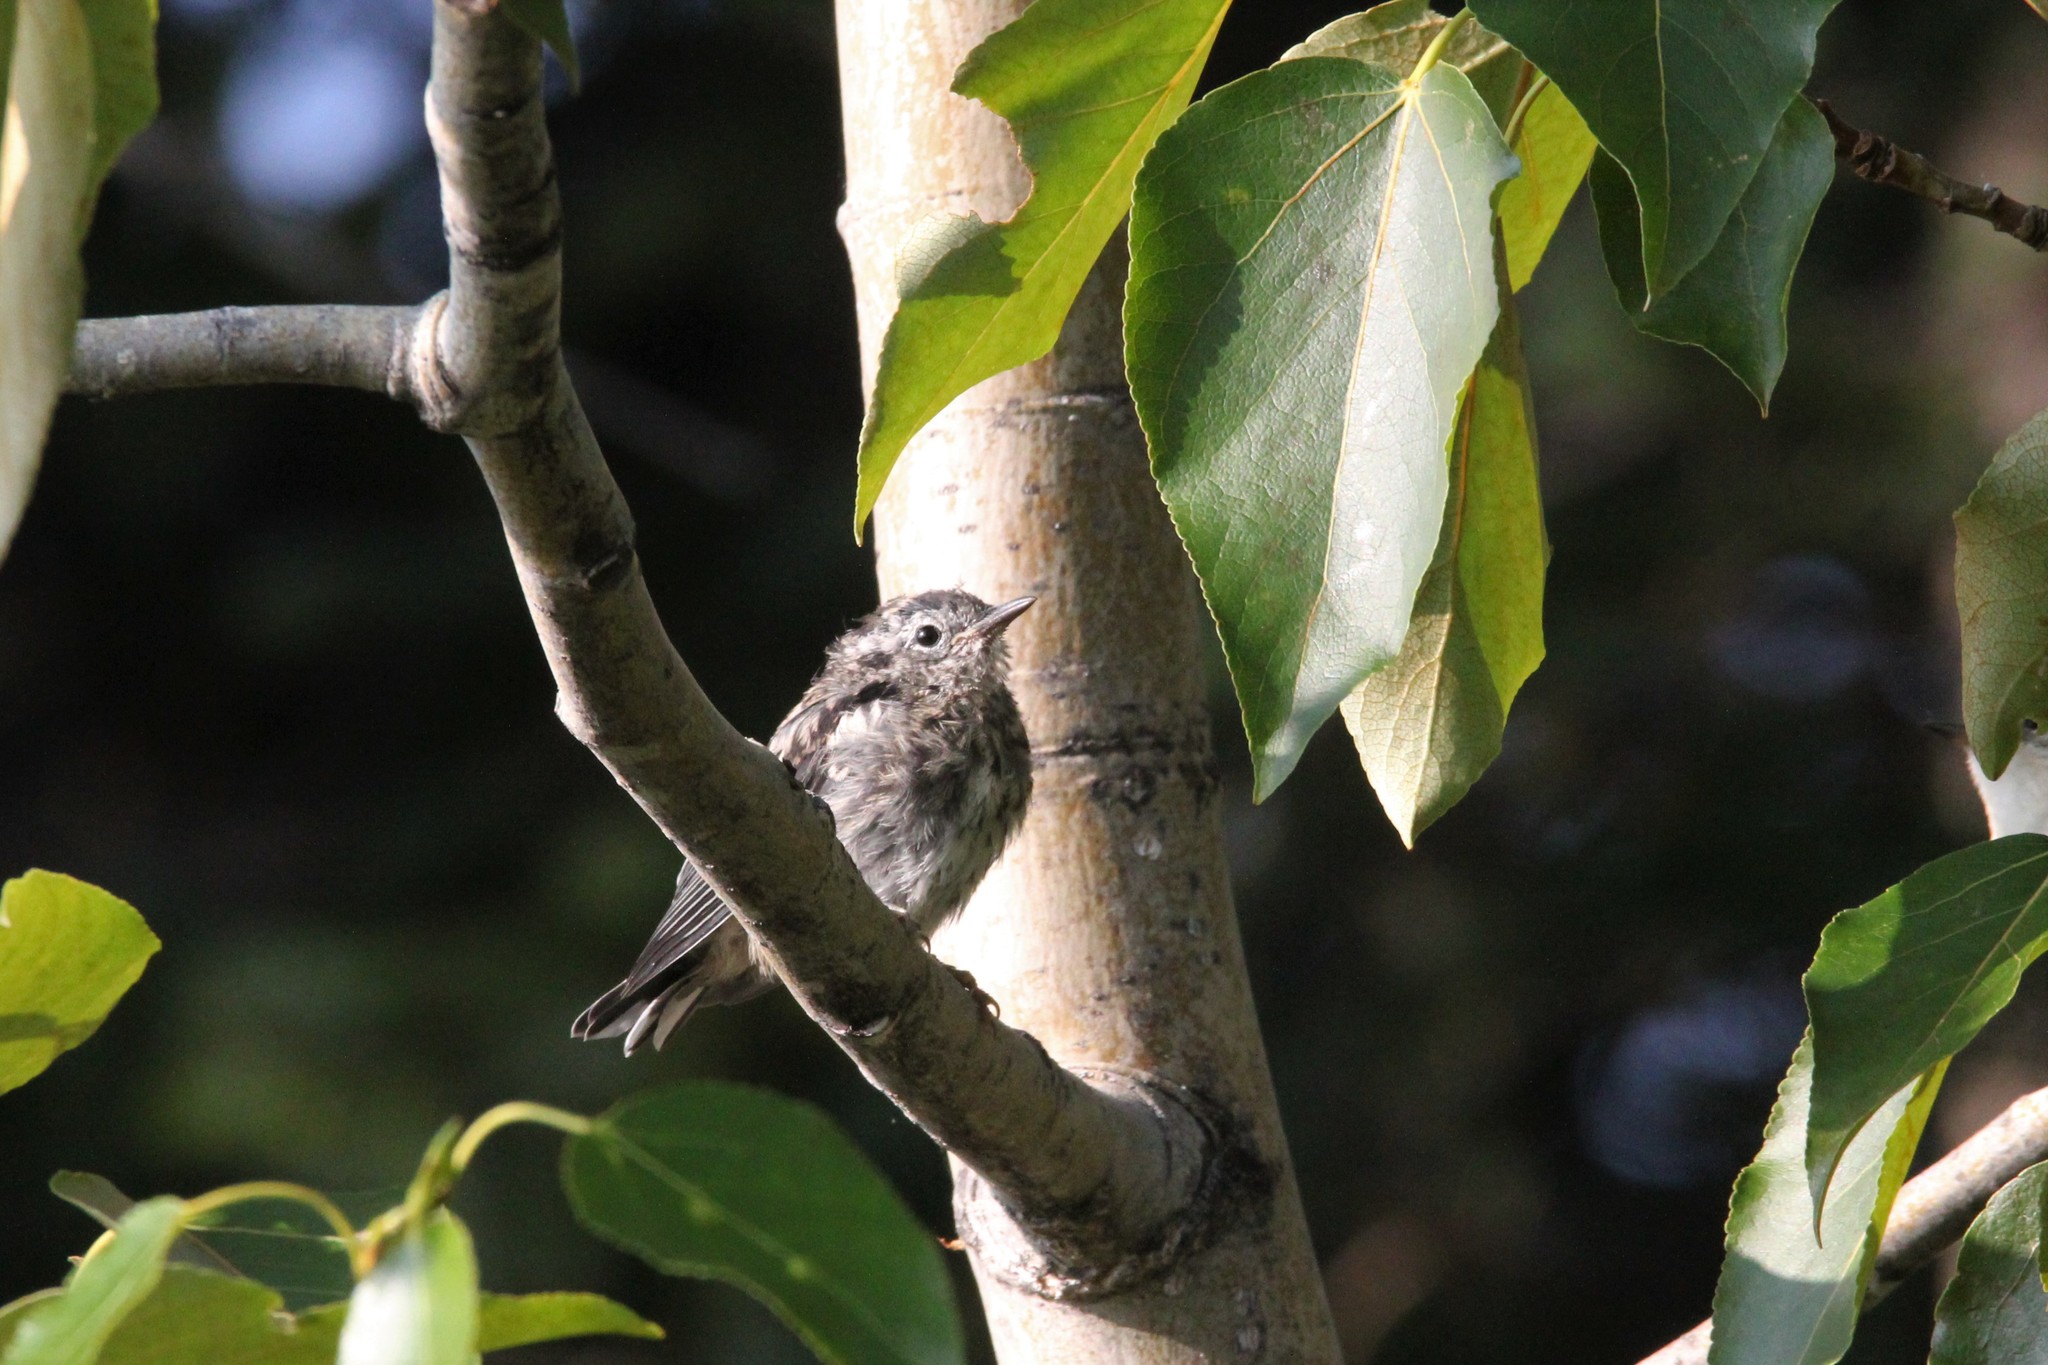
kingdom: Animalia
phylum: Chordata
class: Aves
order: Passeriformes
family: Parulidae
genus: Mniotilta
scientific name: Mniotilta varia
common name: Black-and-white warbler
